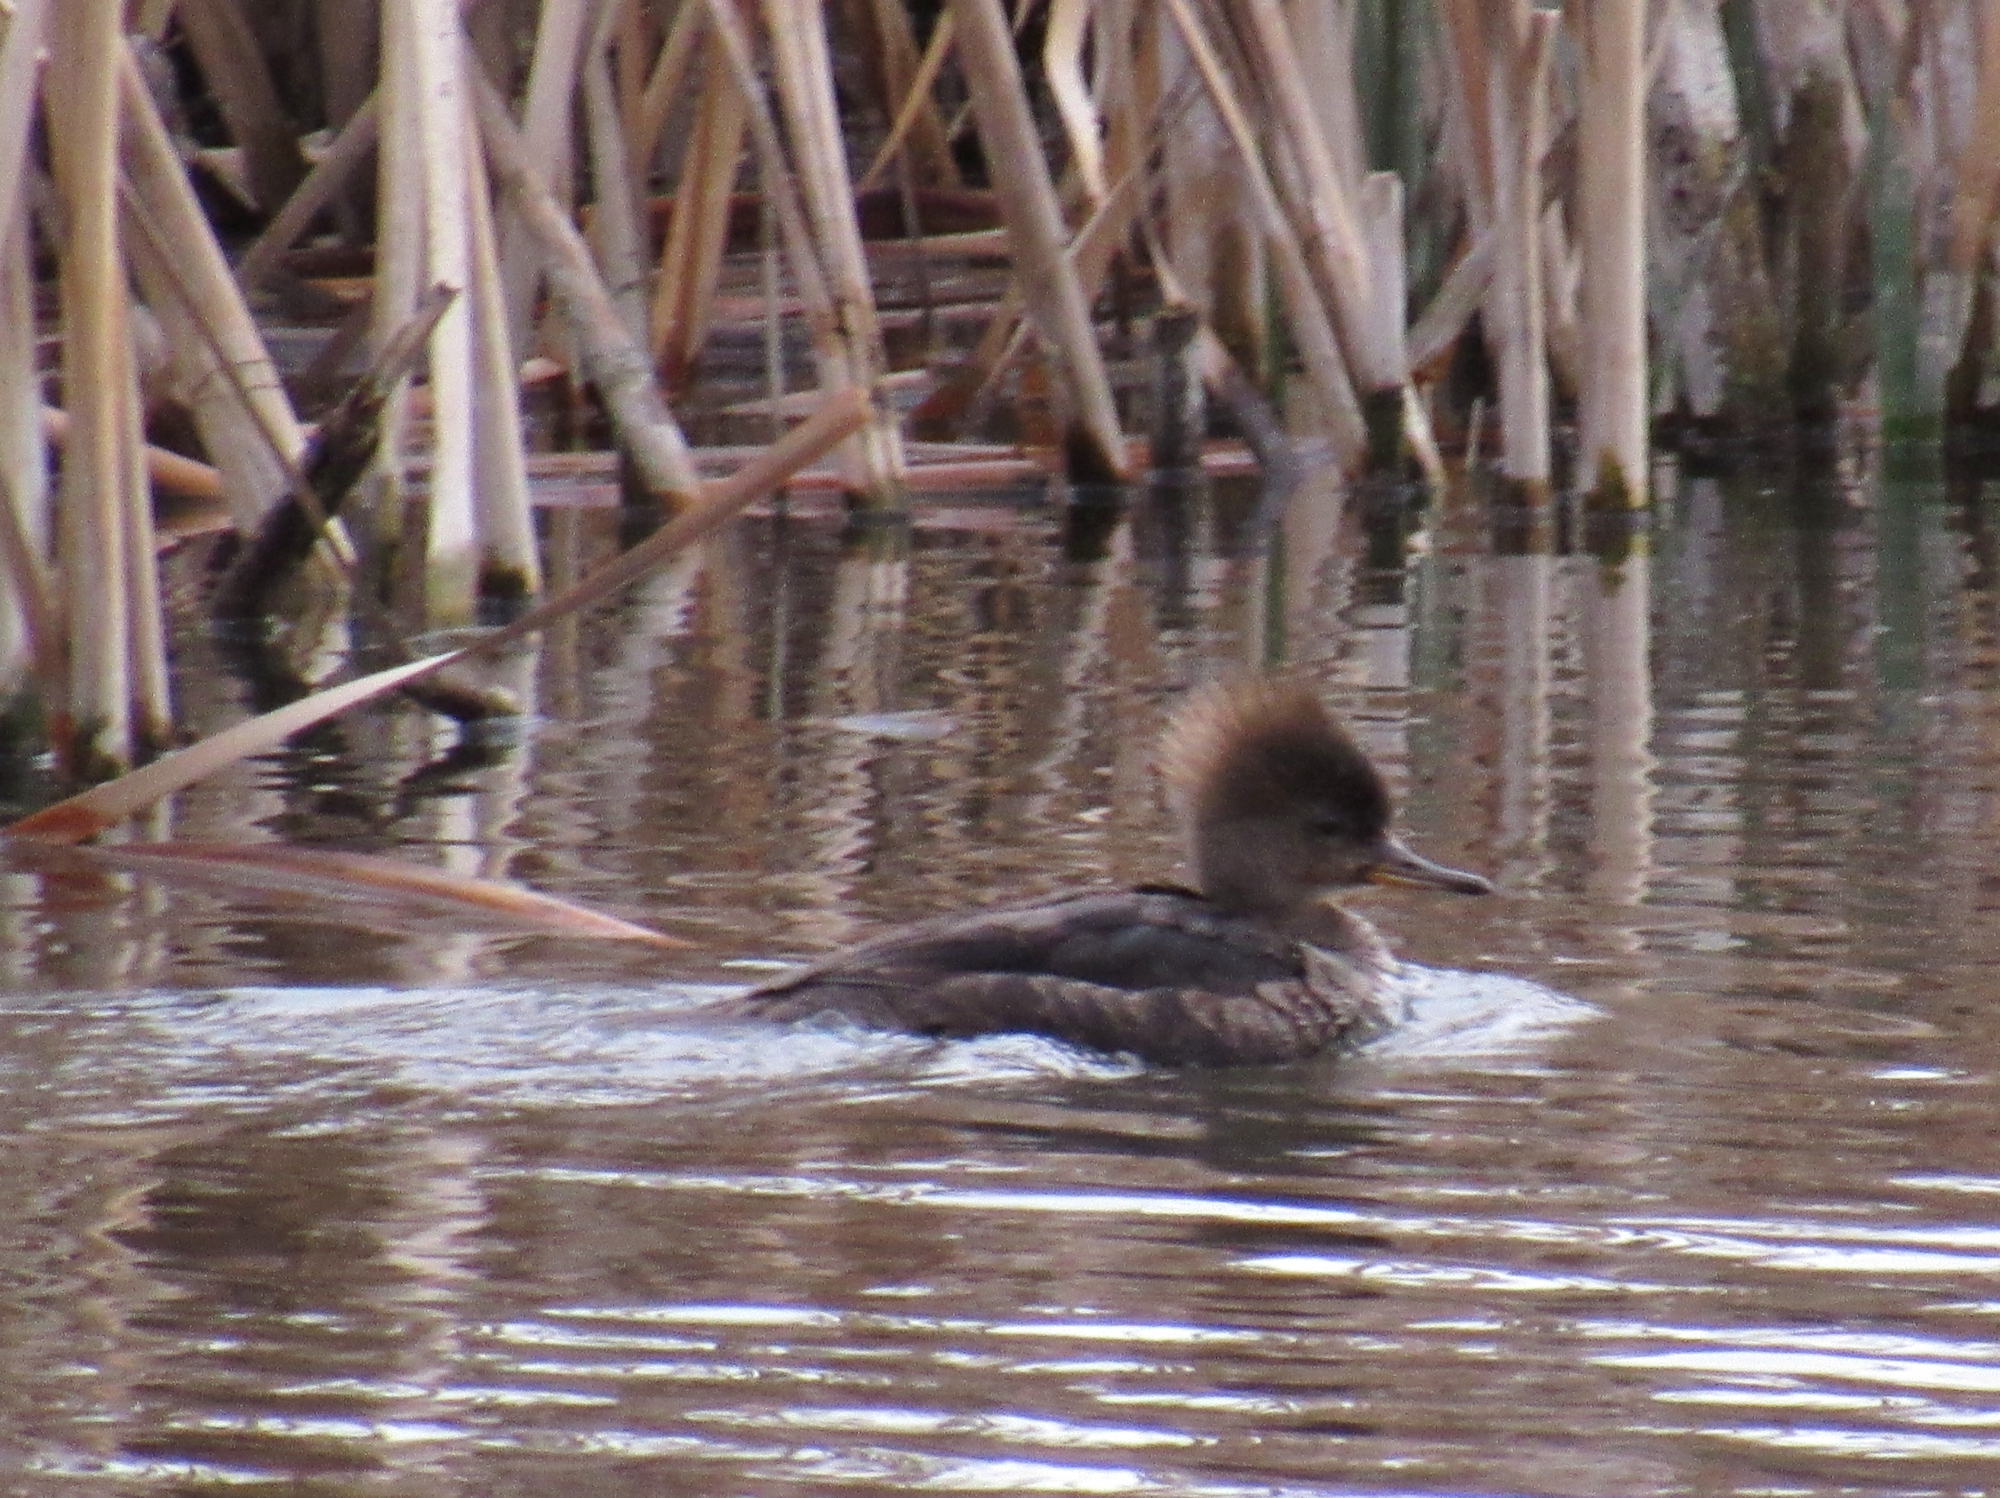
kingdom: Animalia
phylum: Chordata
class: Aves
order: Anseriformes
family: Anatidae
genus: Lophodytes
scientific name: Lophodytes cucullatus
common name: Hooded merganser
